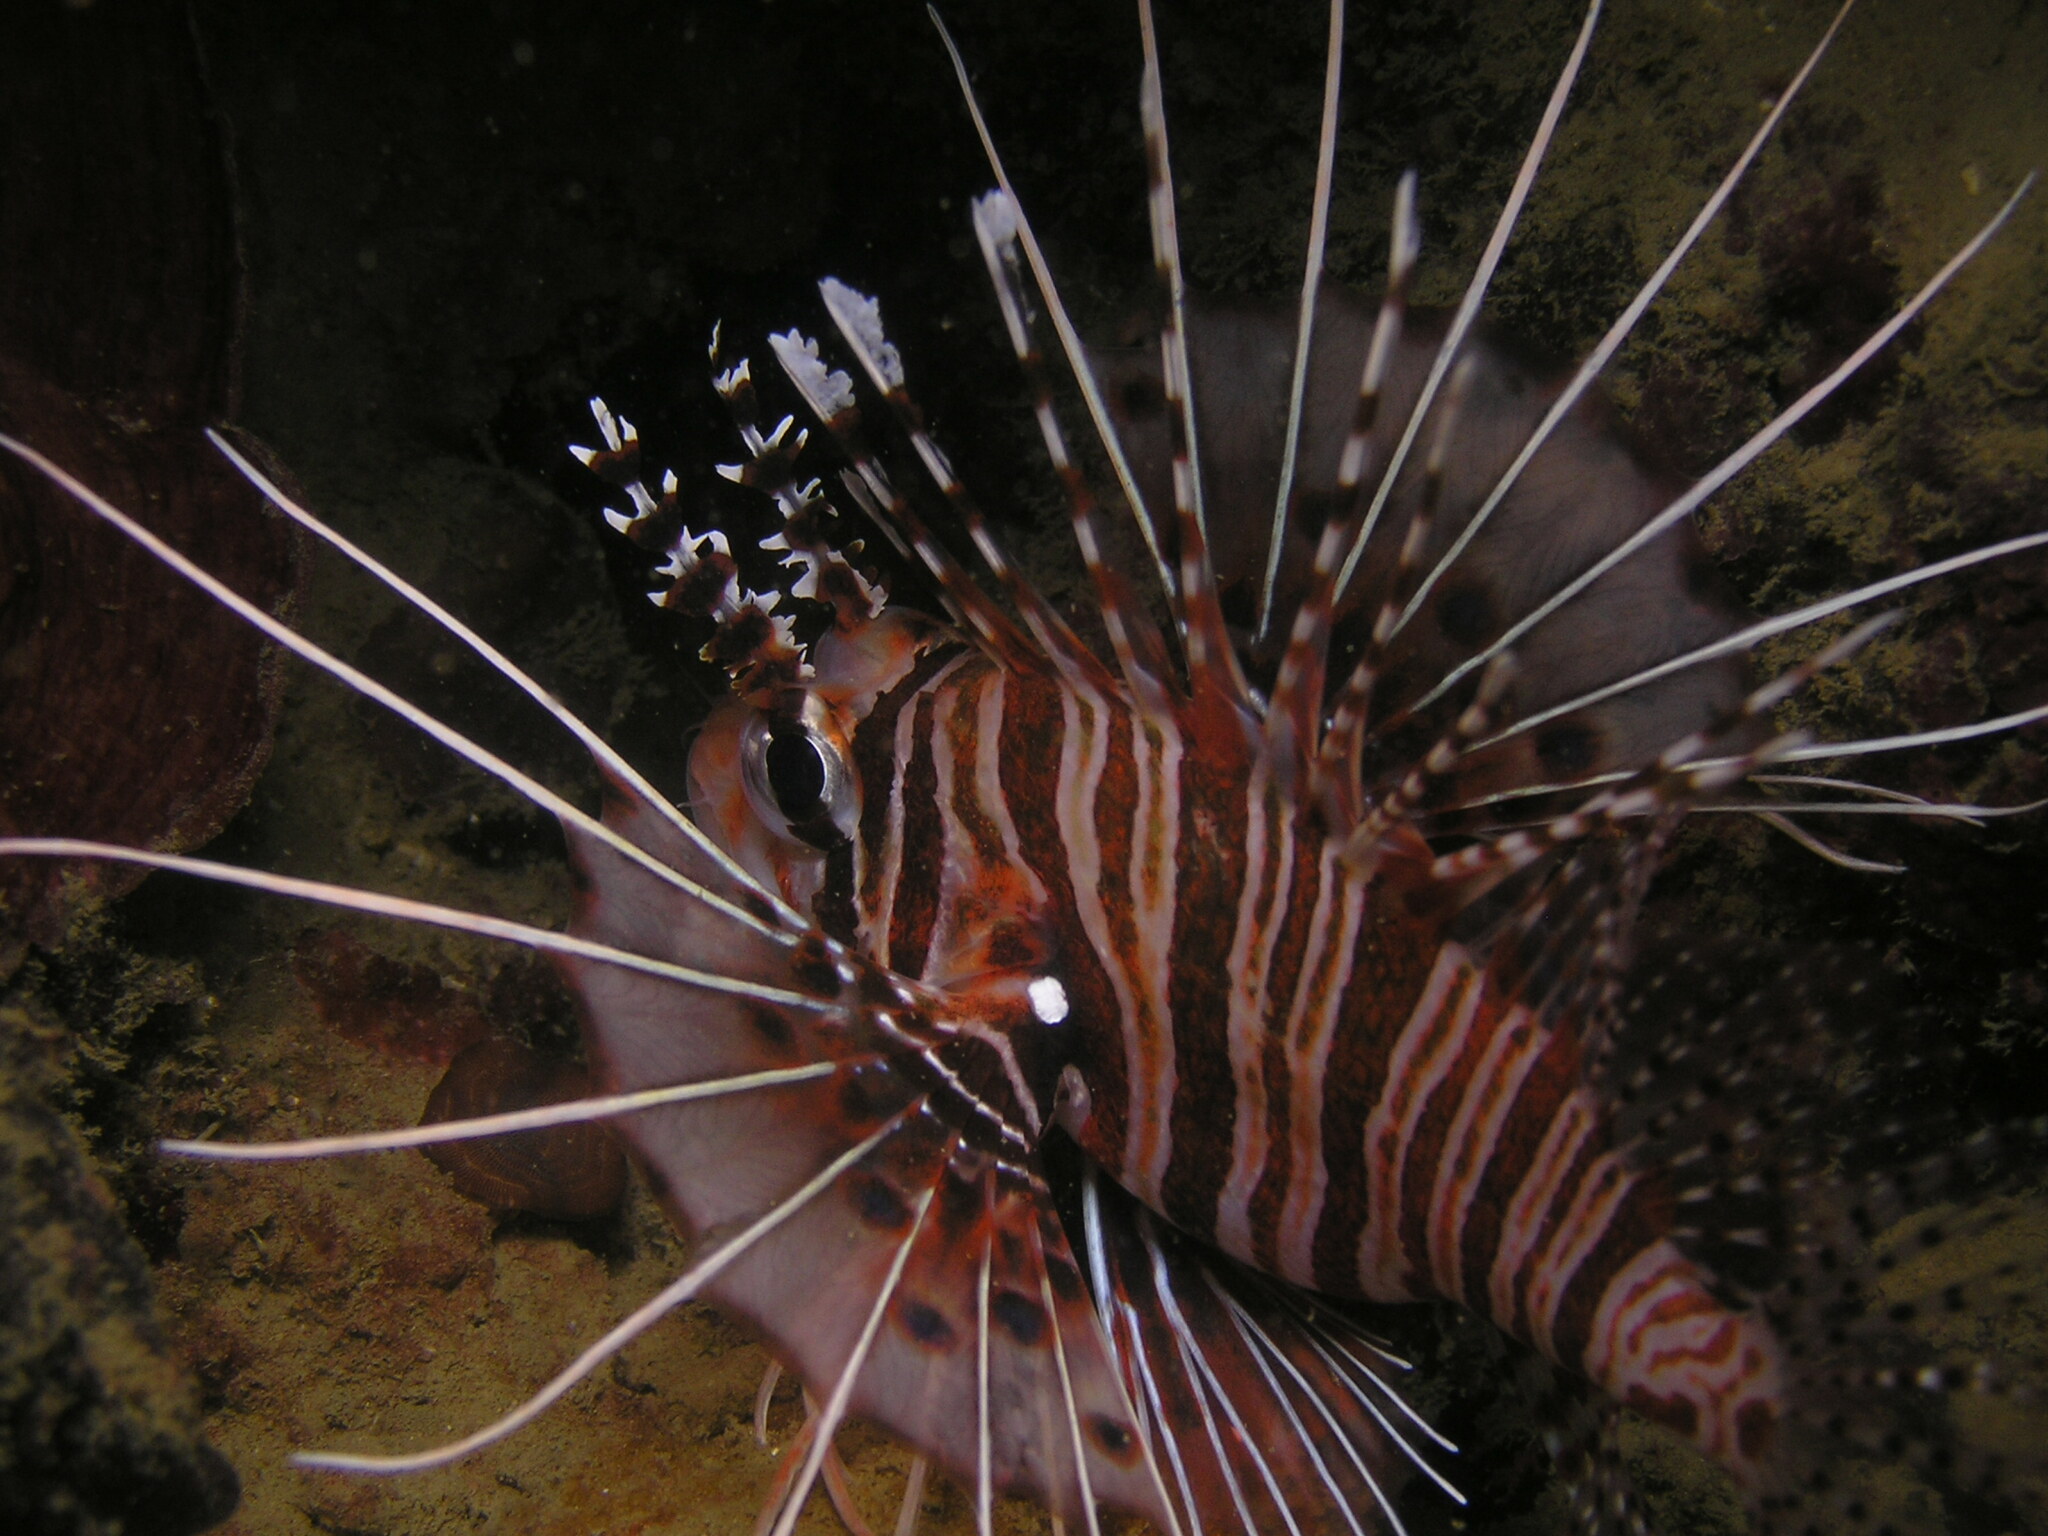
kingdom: Animalia
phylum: Chordata
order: Scorpaeniformes
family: Scorpaenidae
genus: Pterois
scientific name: Pterois antennata
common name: Spotfin lionfish
